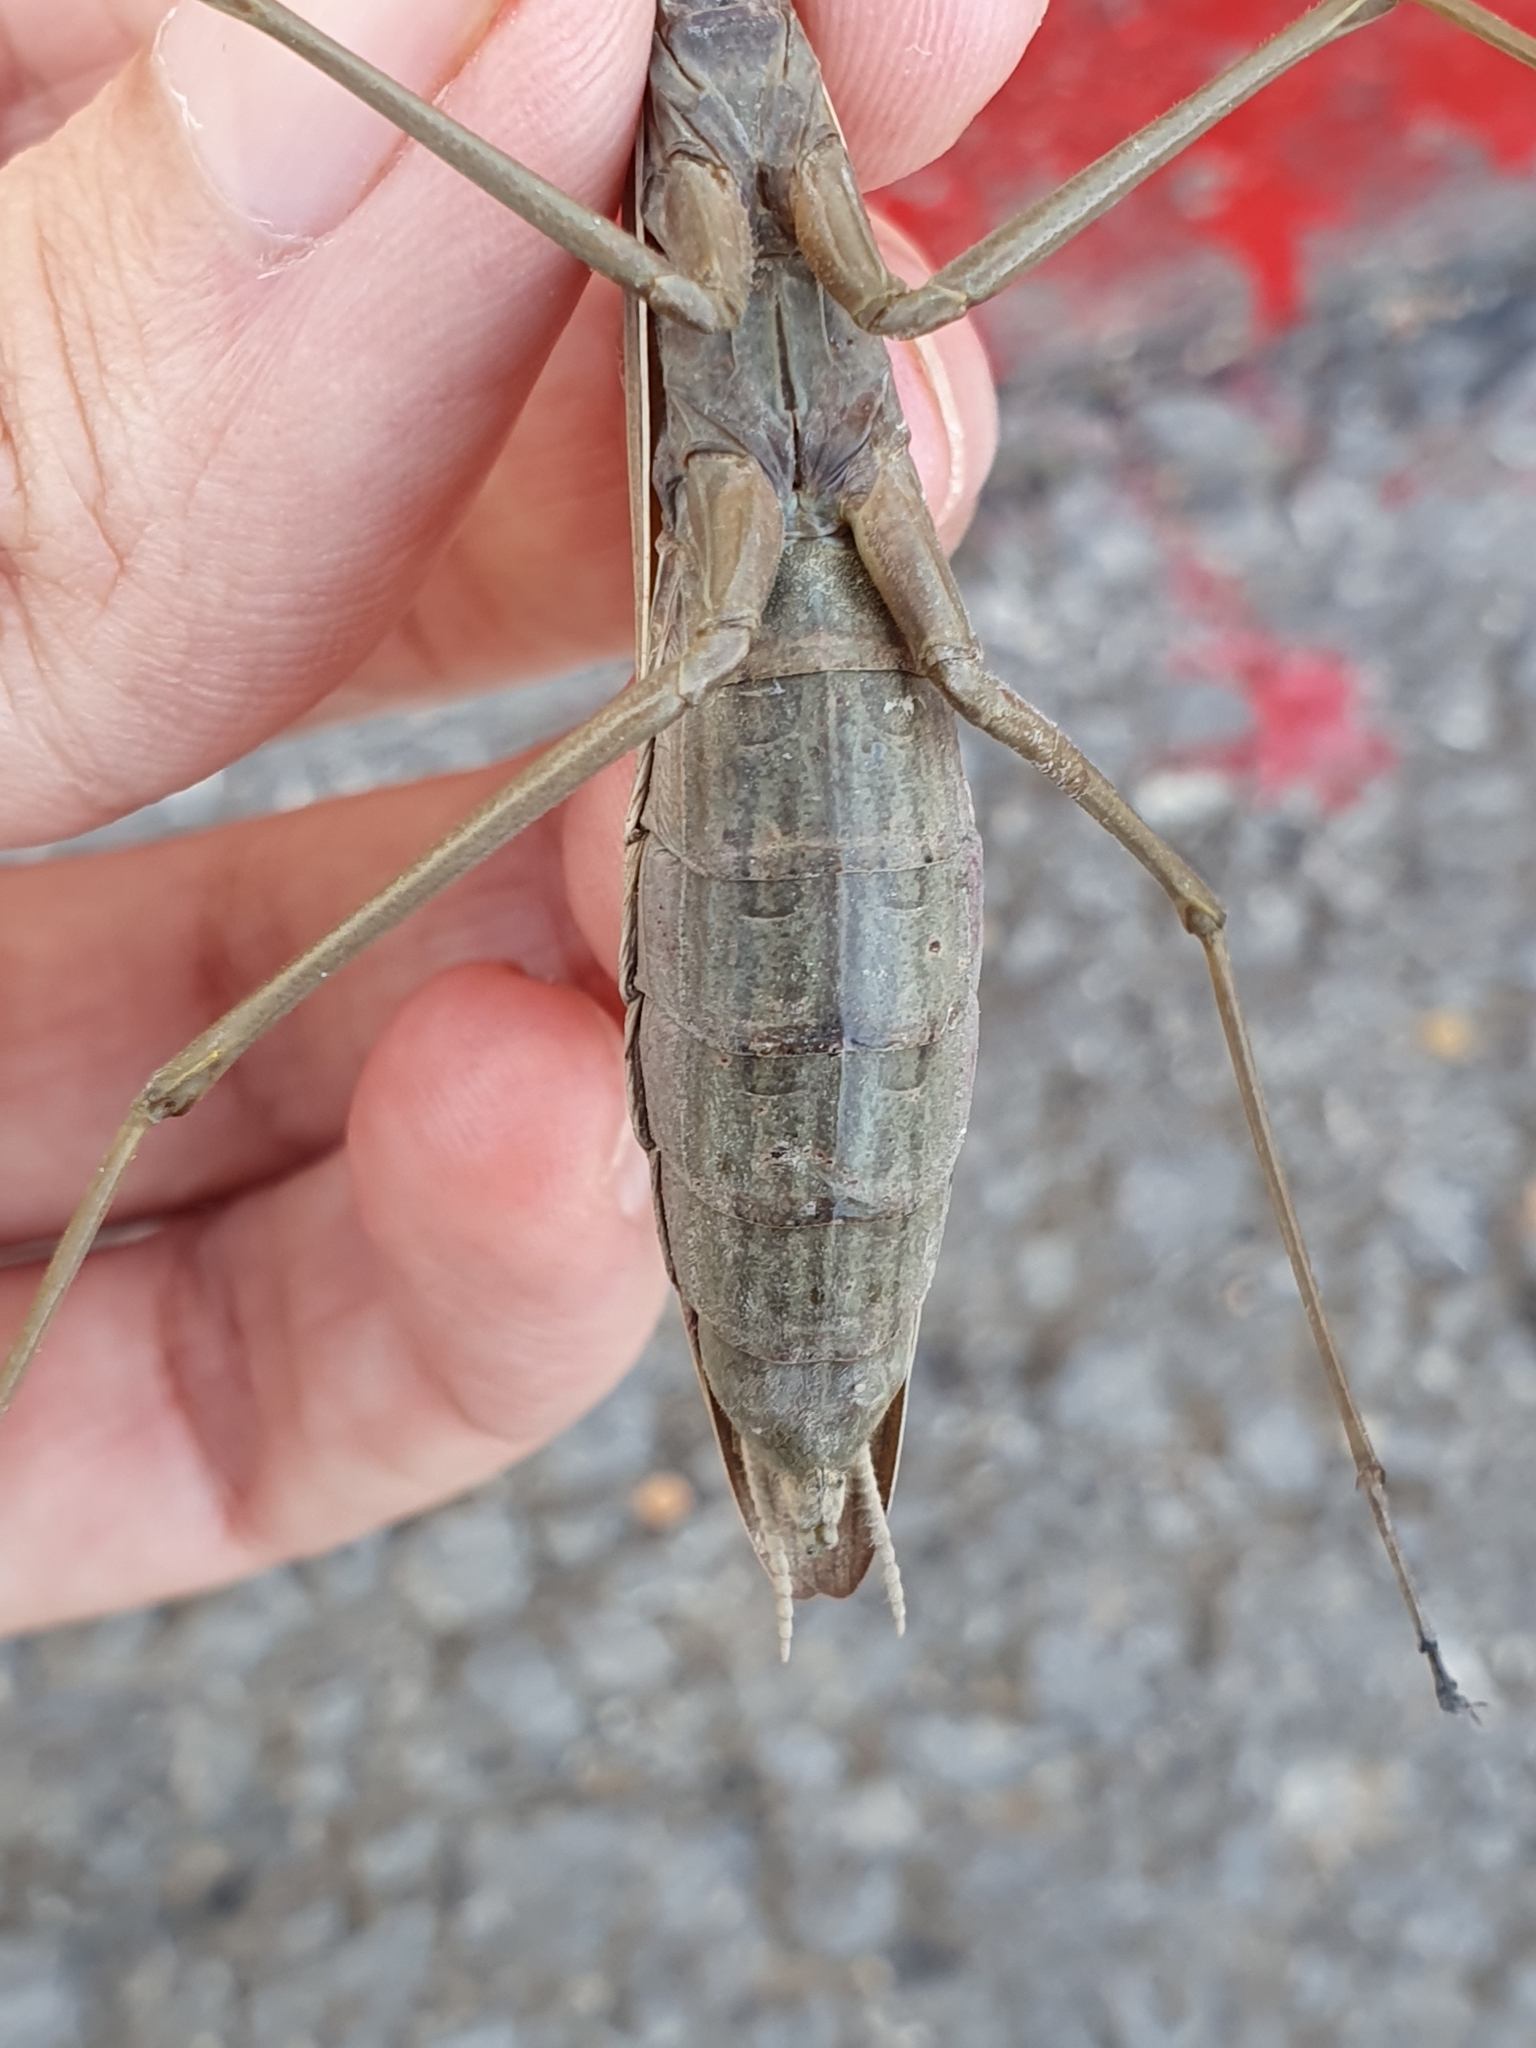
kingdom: Animalia
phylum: Arthropoda
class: Insecta
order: Mantodea
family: Mantidae
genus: Mantis
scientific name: Mantis religiosa
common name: Praying mantis
